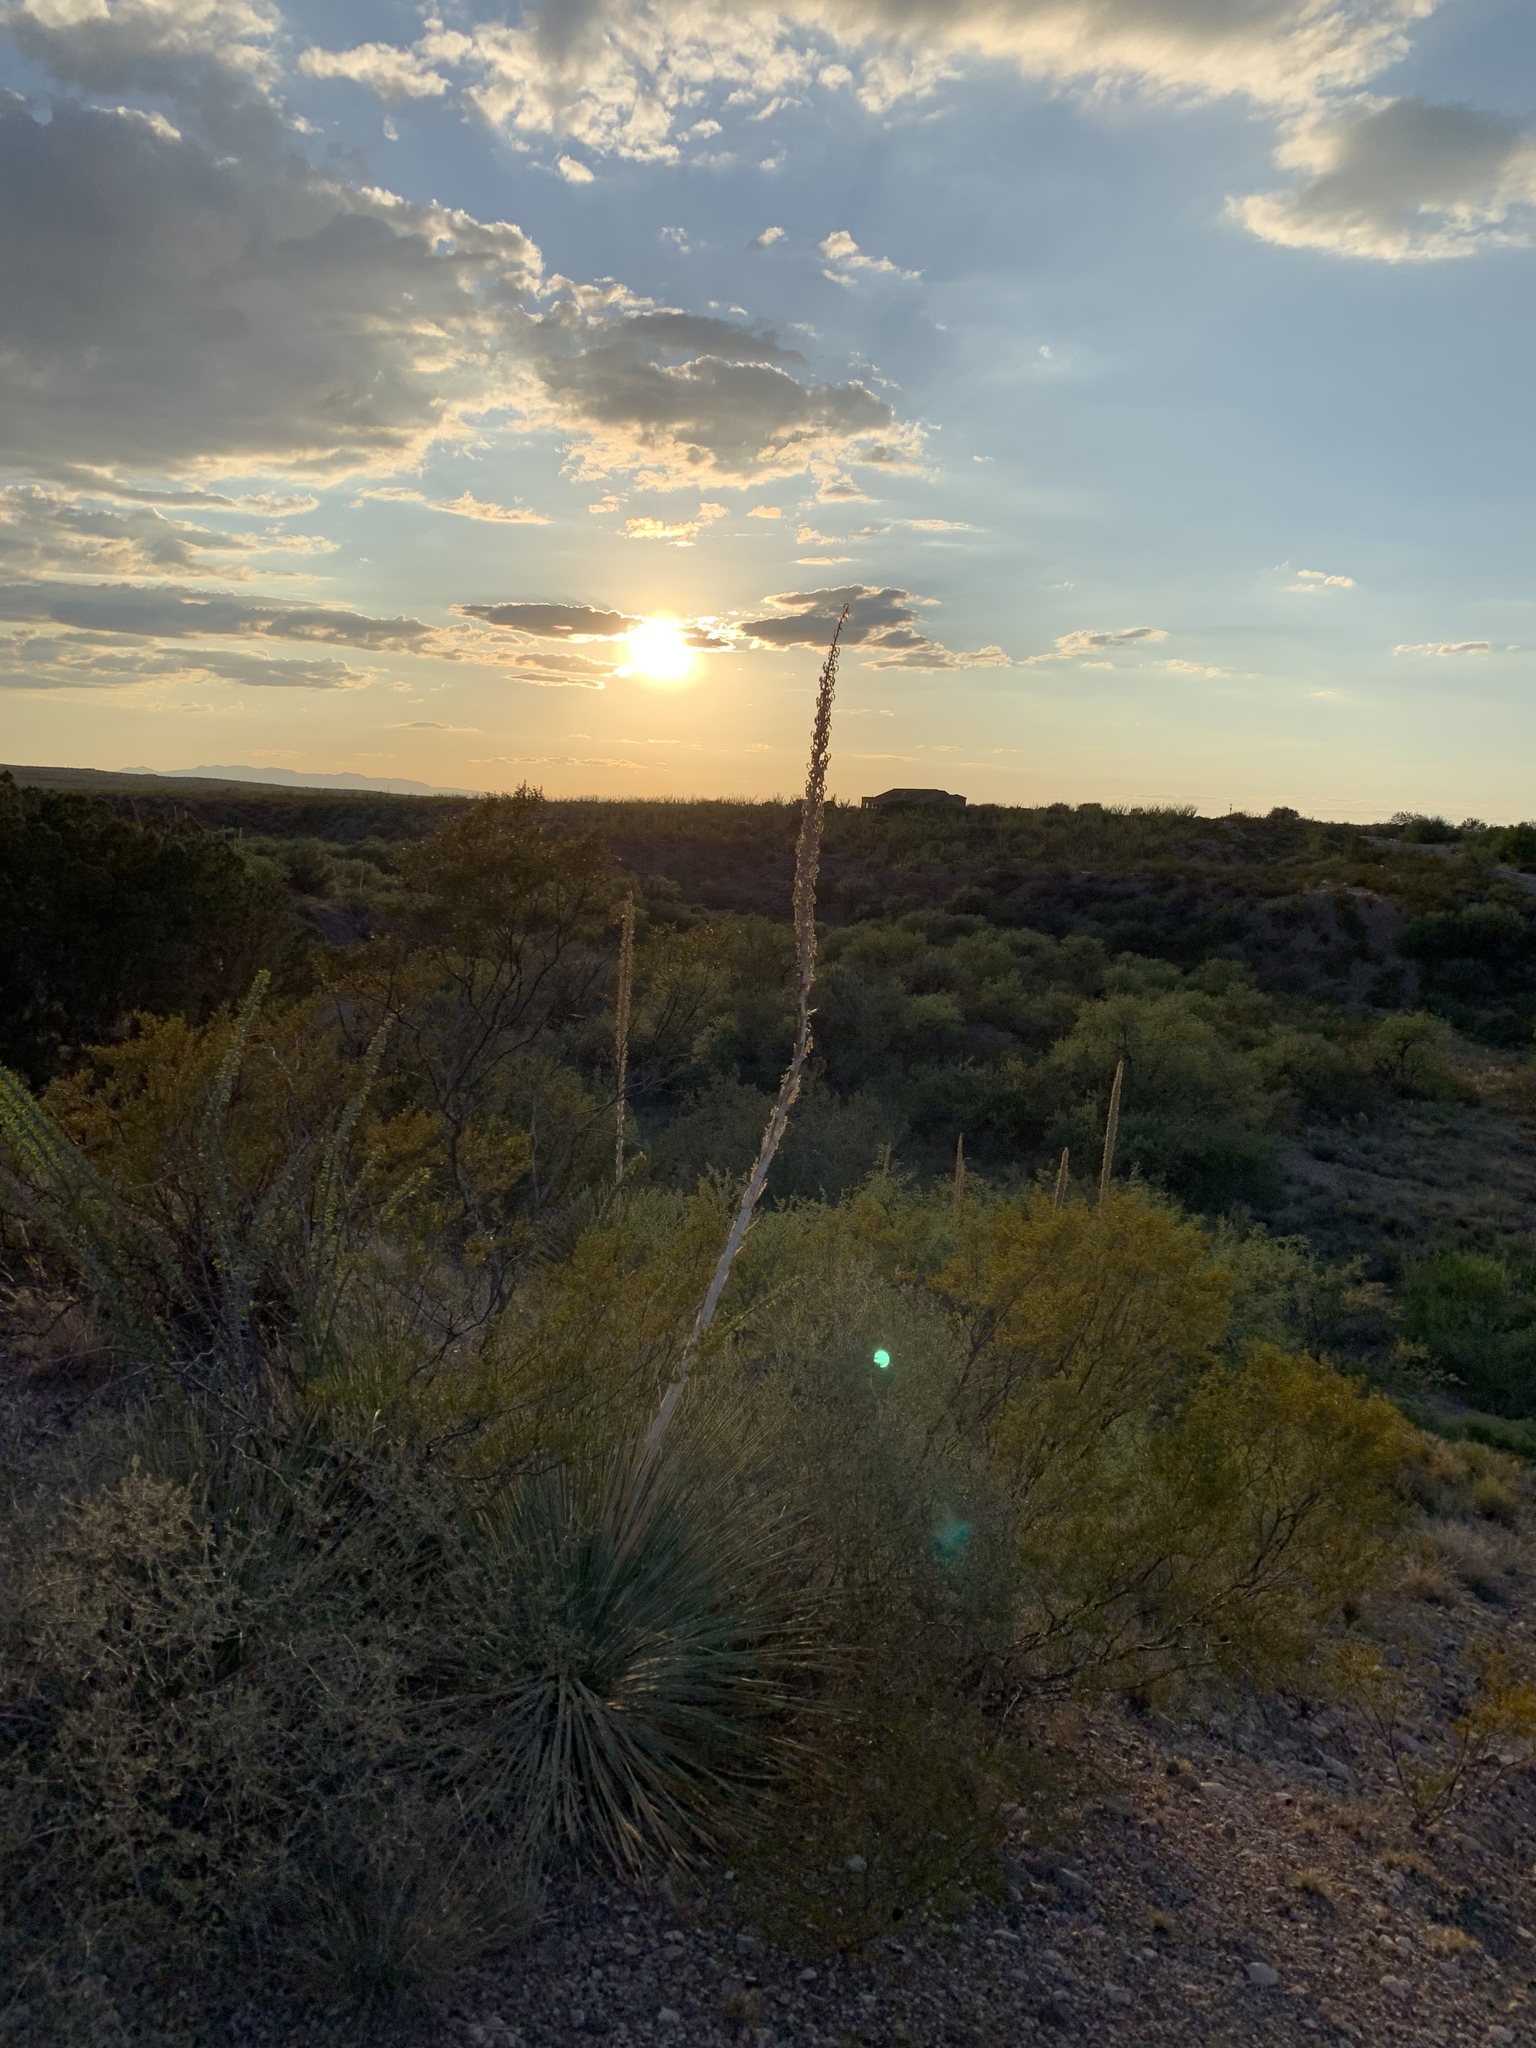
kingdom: Plantae
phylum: Tracheophyta
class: Liliopsida
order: Asparagales
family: Asparagaceae
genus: Dasylirion
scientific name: Dasylirion wheeleri
